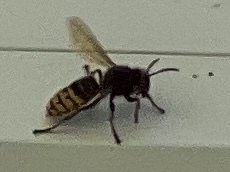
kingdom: Animalia
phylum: Arthropoda
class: Insecta
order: Hymenoptera
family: Vespidae
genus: Vespa
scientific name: Vespa crabro
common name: Hornet
